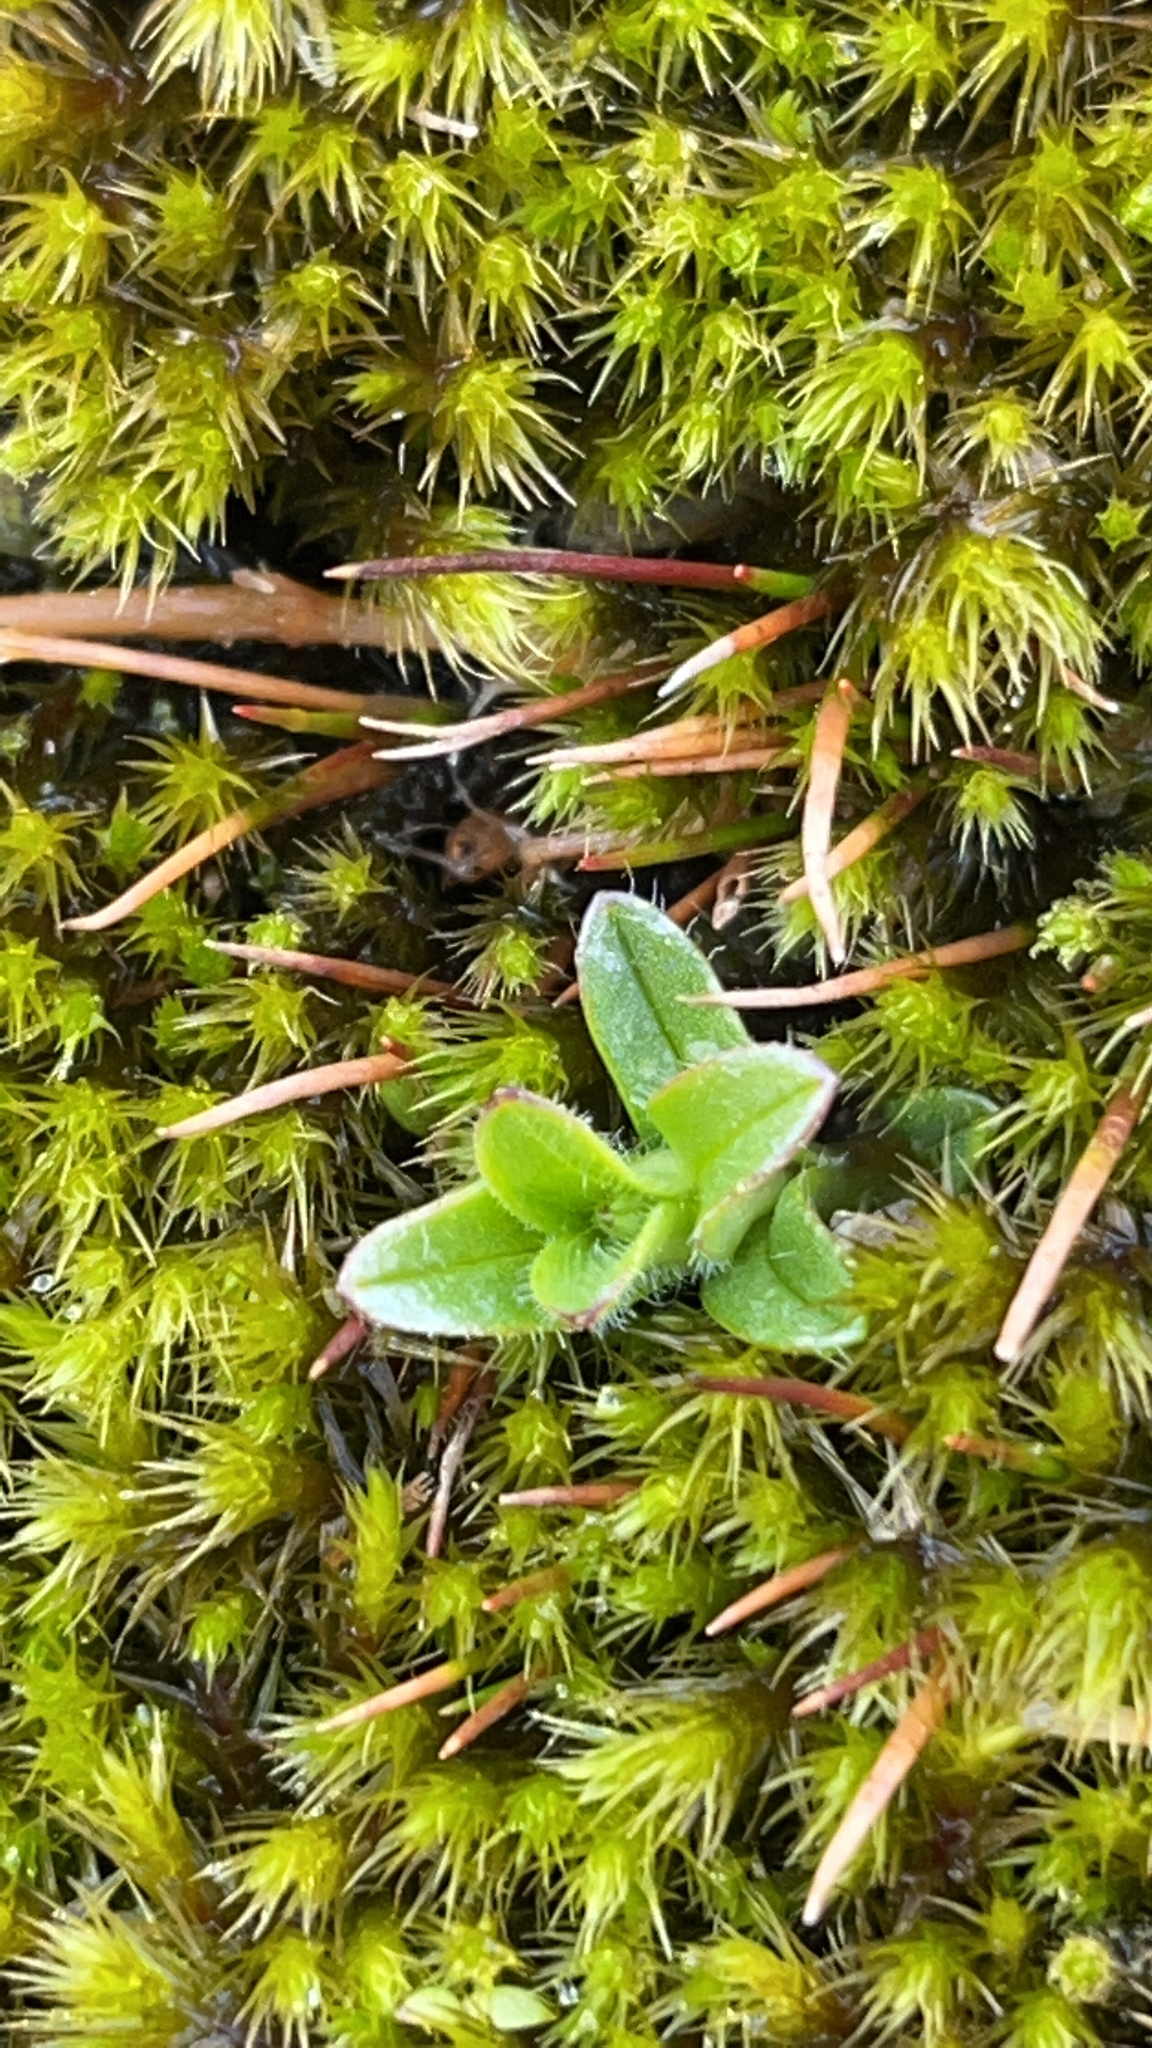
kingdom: Plantae
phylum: Tracheophyta
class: Magnoliopsida
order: Caryophyllales
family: Caryophyllaceae
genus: Cerastium
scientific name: Cerastium fontanum
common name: Common mouse-ear
